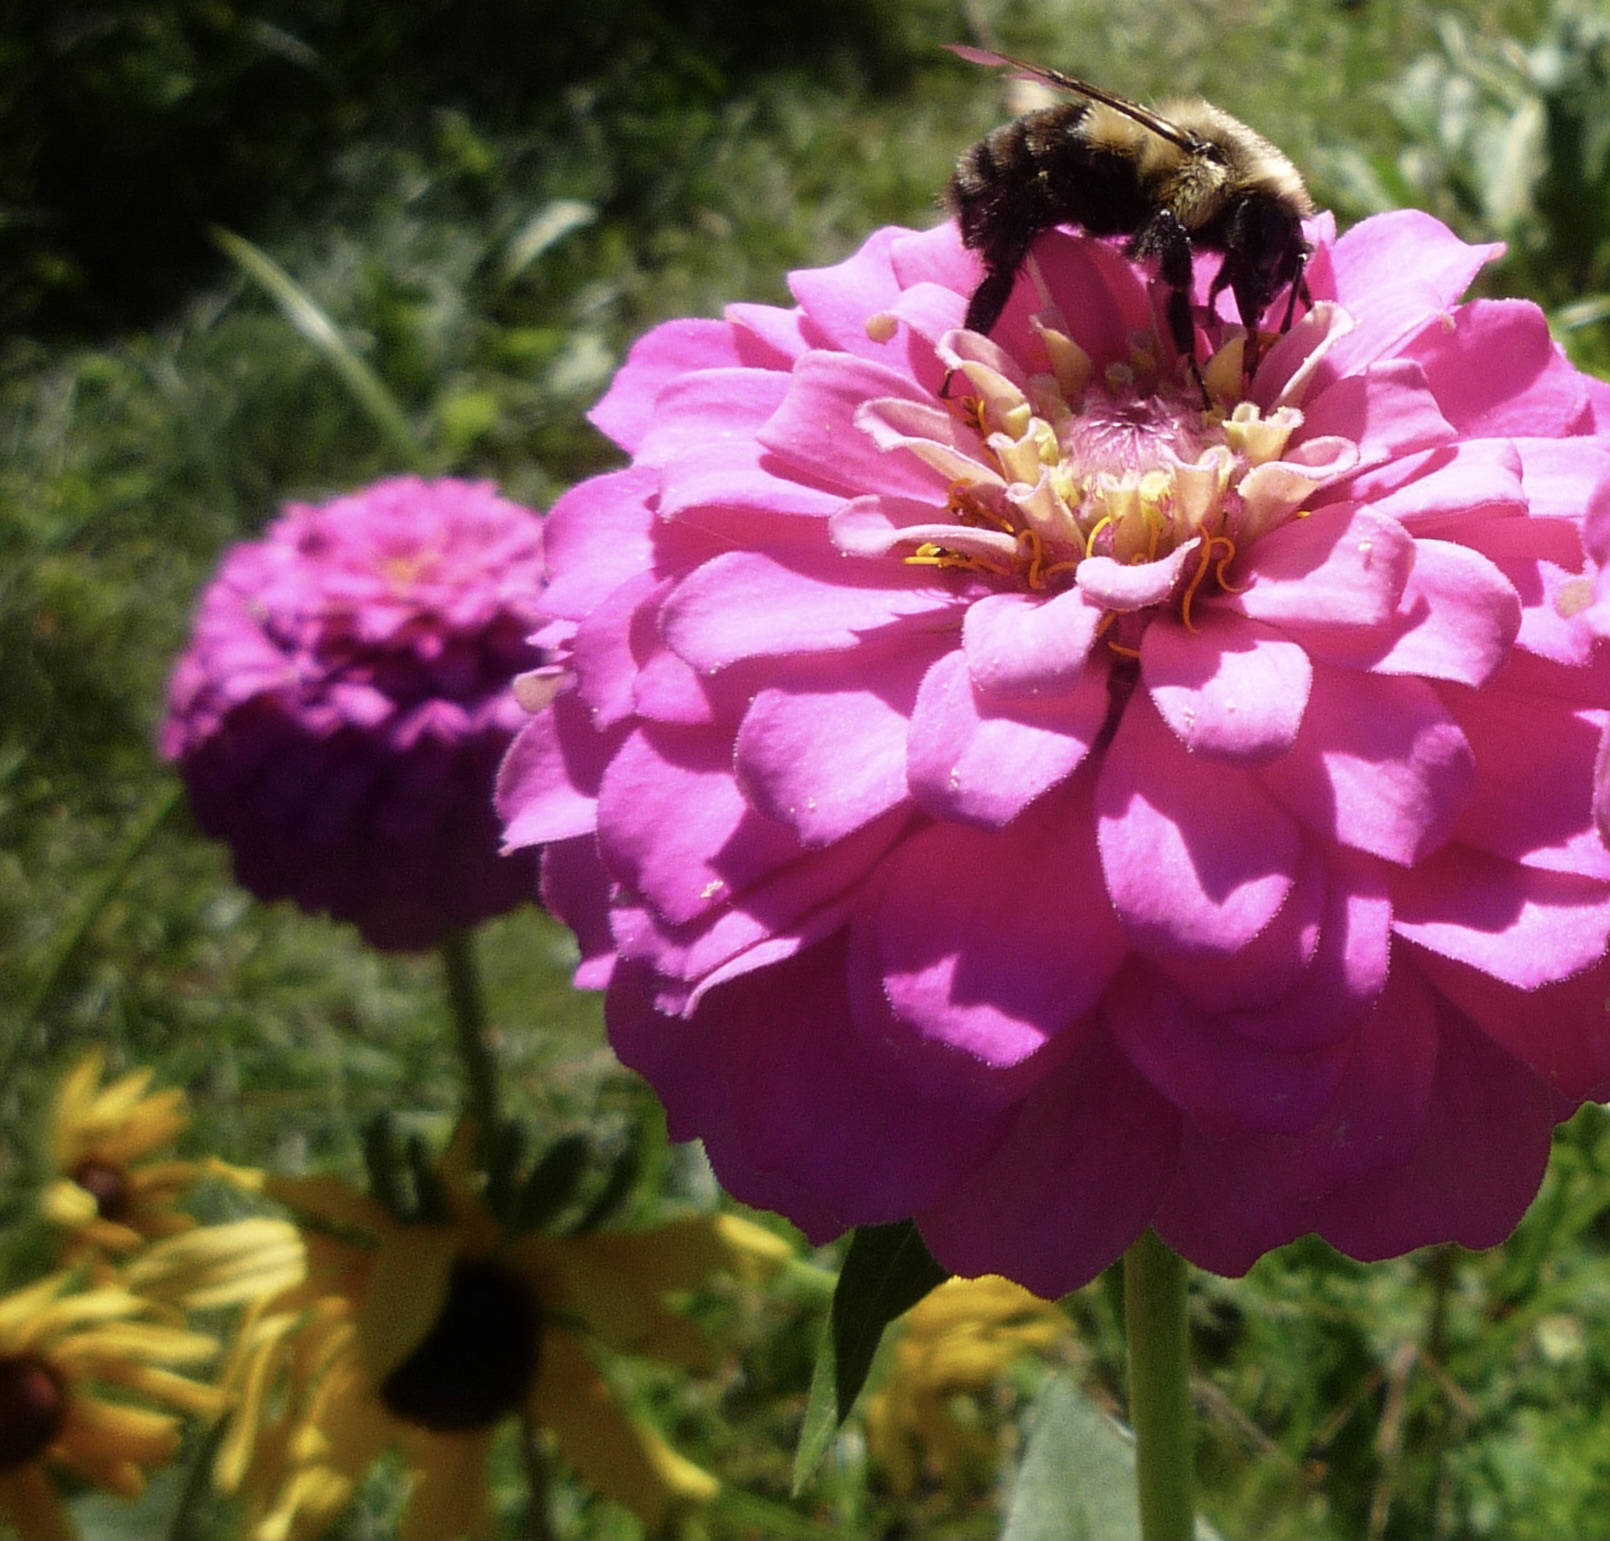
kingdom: Animalia
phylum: Arthropoda
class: Insecta
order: Hymenoptera
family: Apidae
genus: Bombus
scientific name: Bombus impatiens
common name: Common eastern bumble bee
